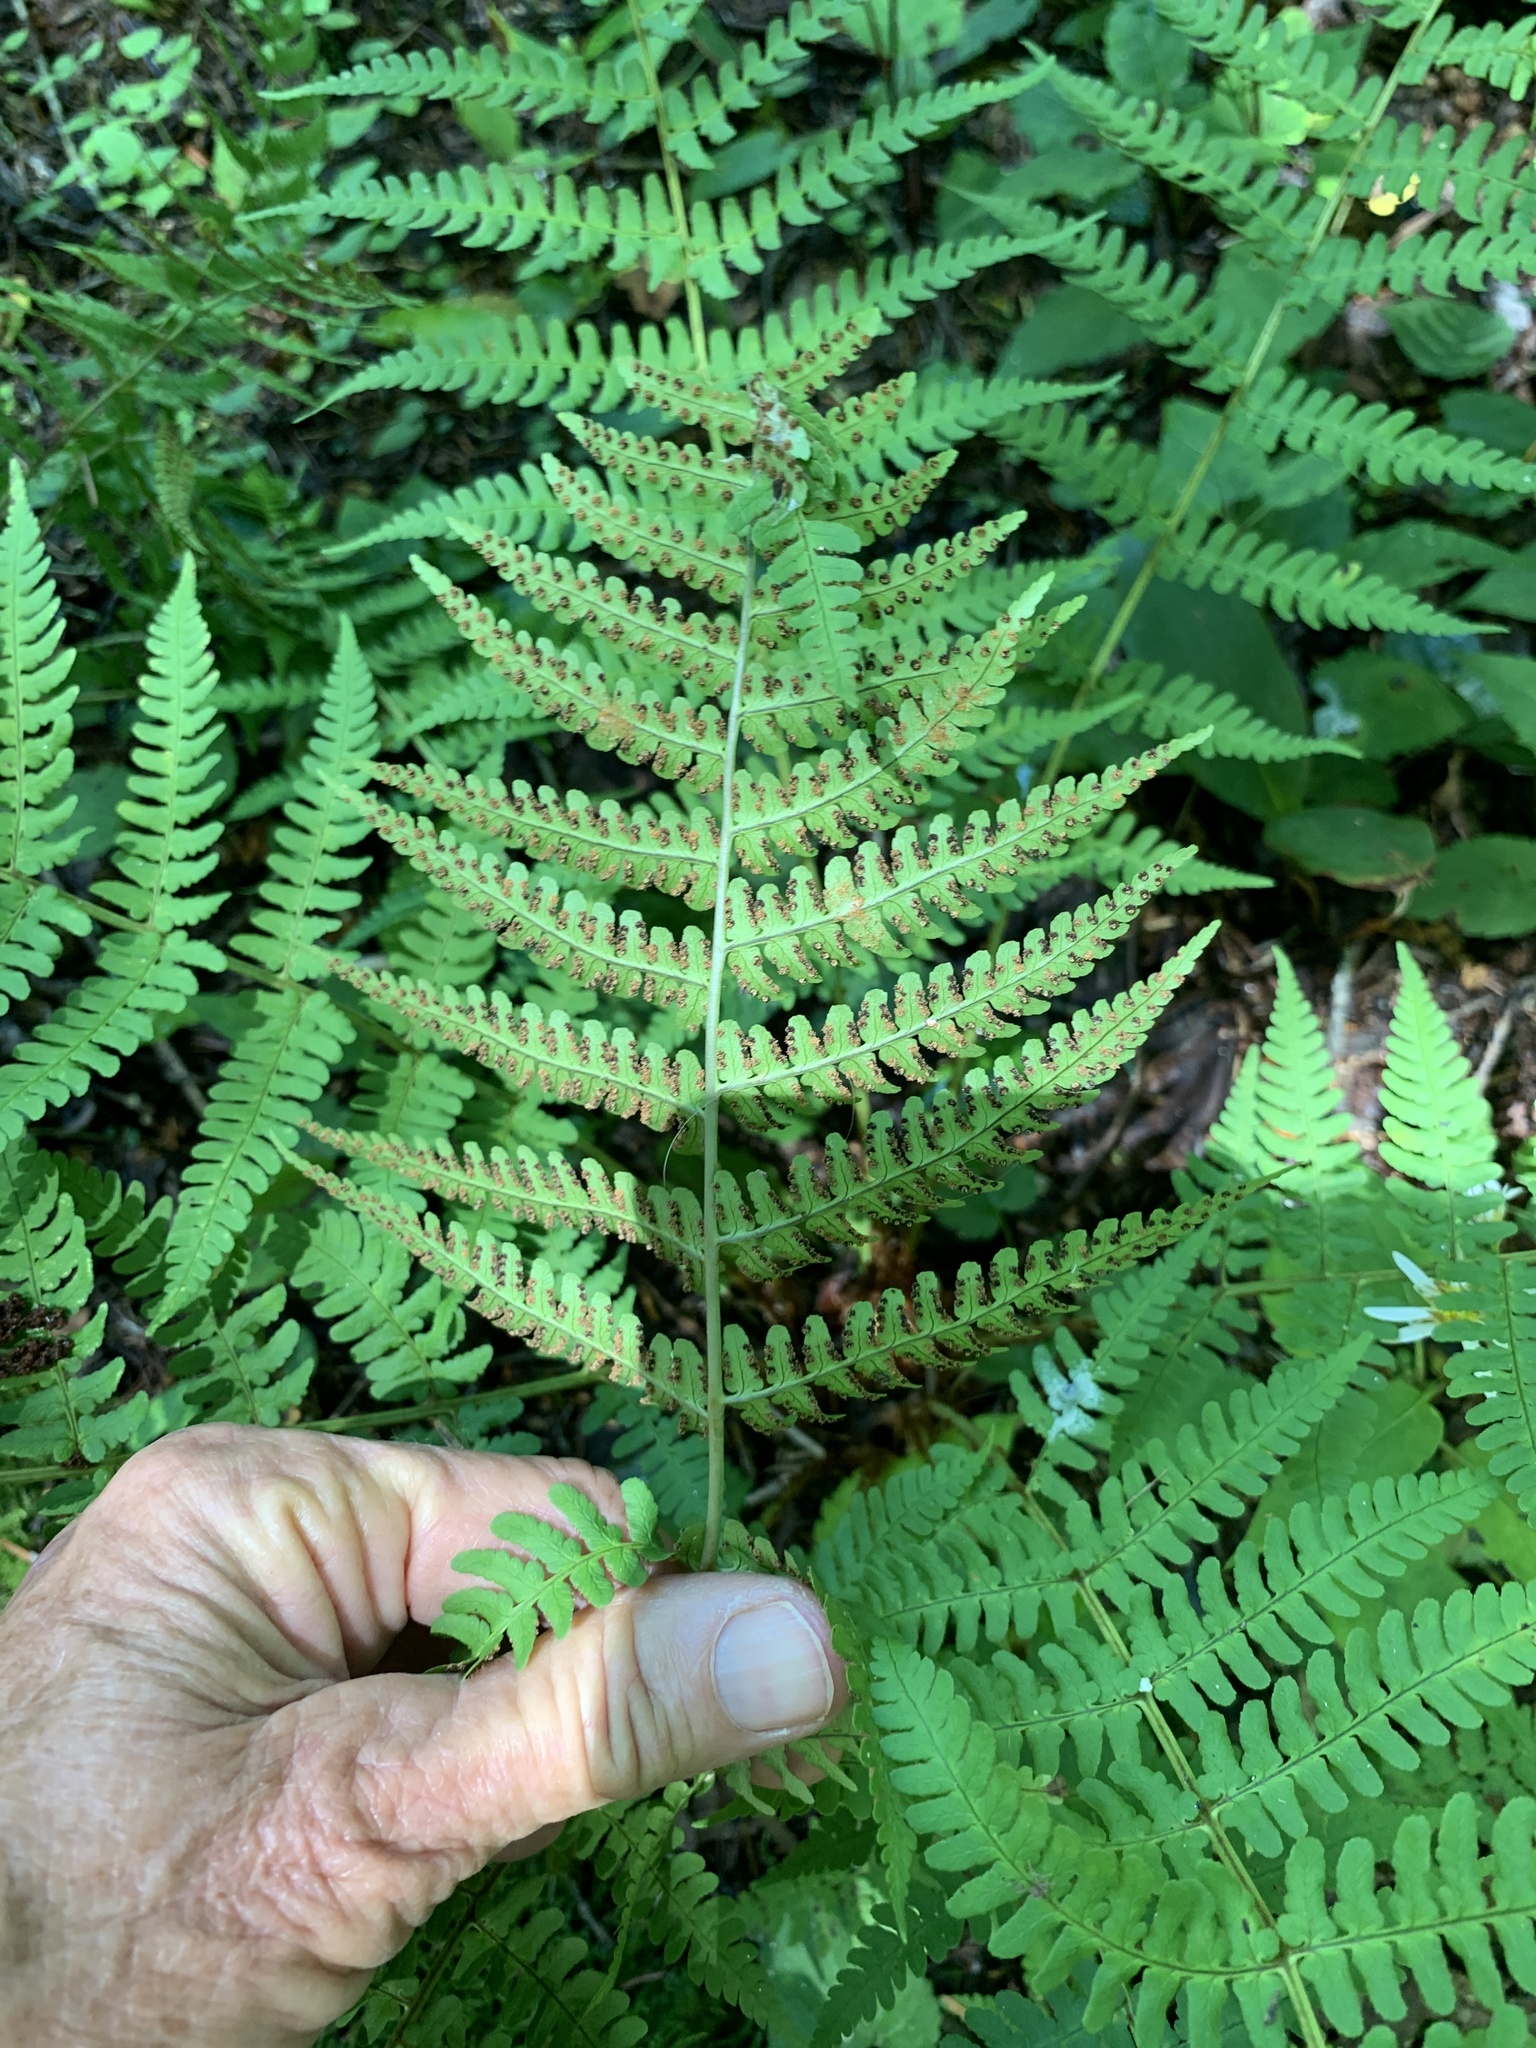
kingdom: Plantae
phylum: Tracheophyta
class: Polypodiopsida
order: Polypodiales
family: Dryopteridaceae
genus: Dryopteris
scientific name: Dryopteris marginalis
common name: Marginal wood fern
